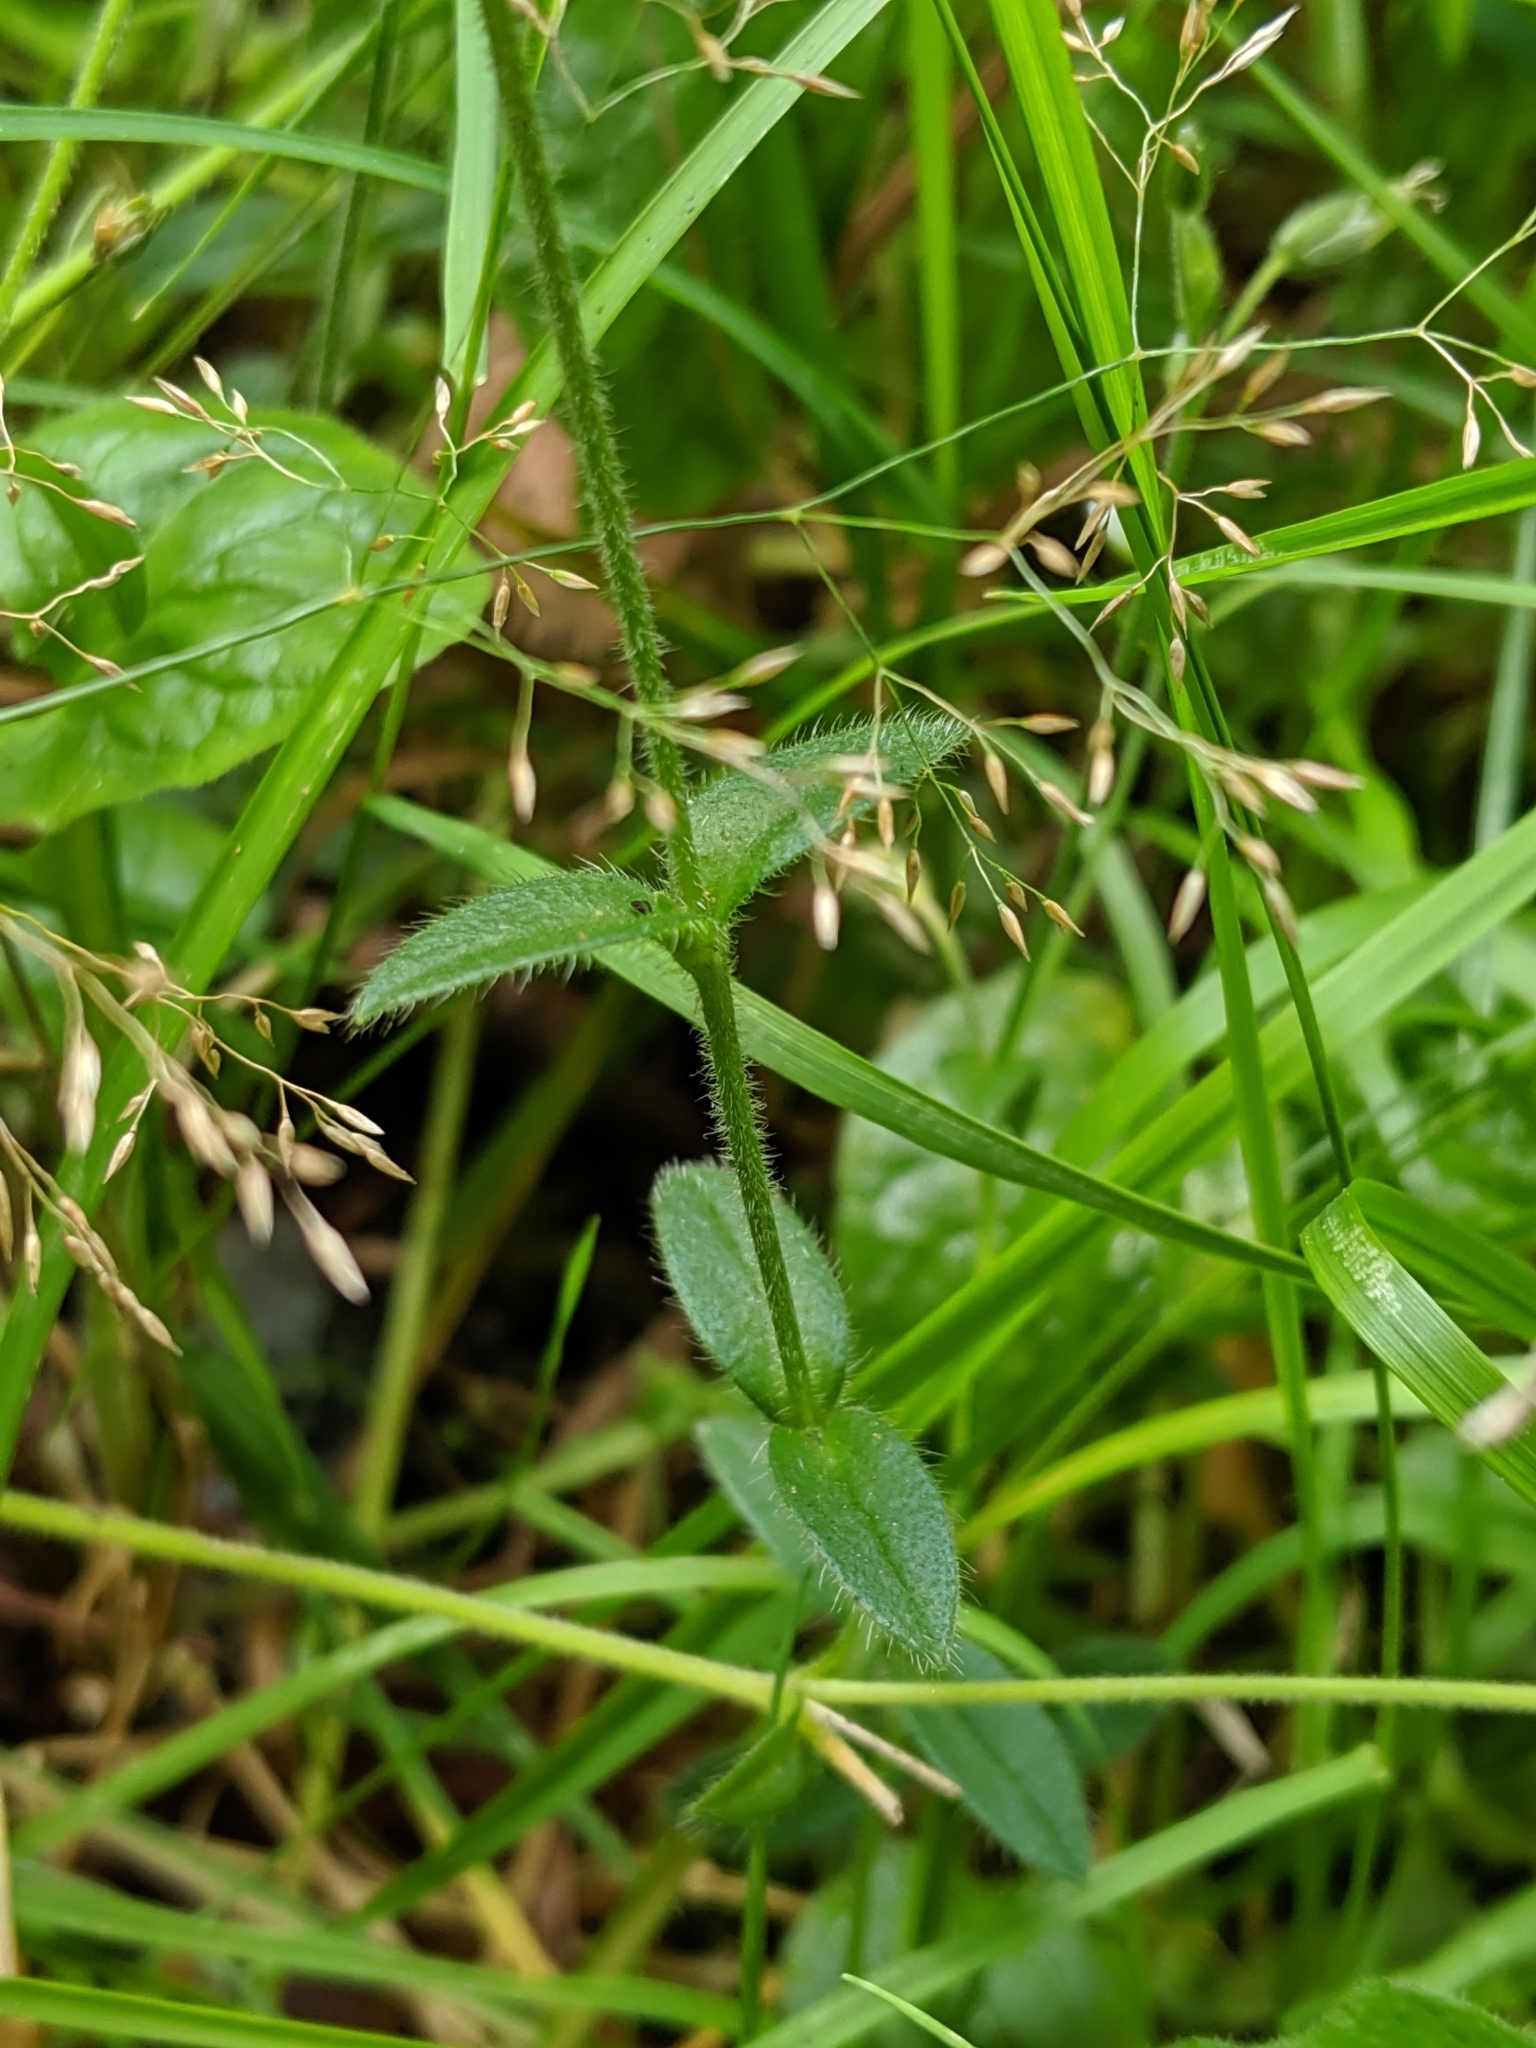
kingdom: Plantae
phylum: Tracheophyta
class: Magnoliopsida
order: Caryophyllales
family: Caryophyllaceae
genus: Cerastium
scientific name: Cerastium fontanum
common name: Common mouse-ear
